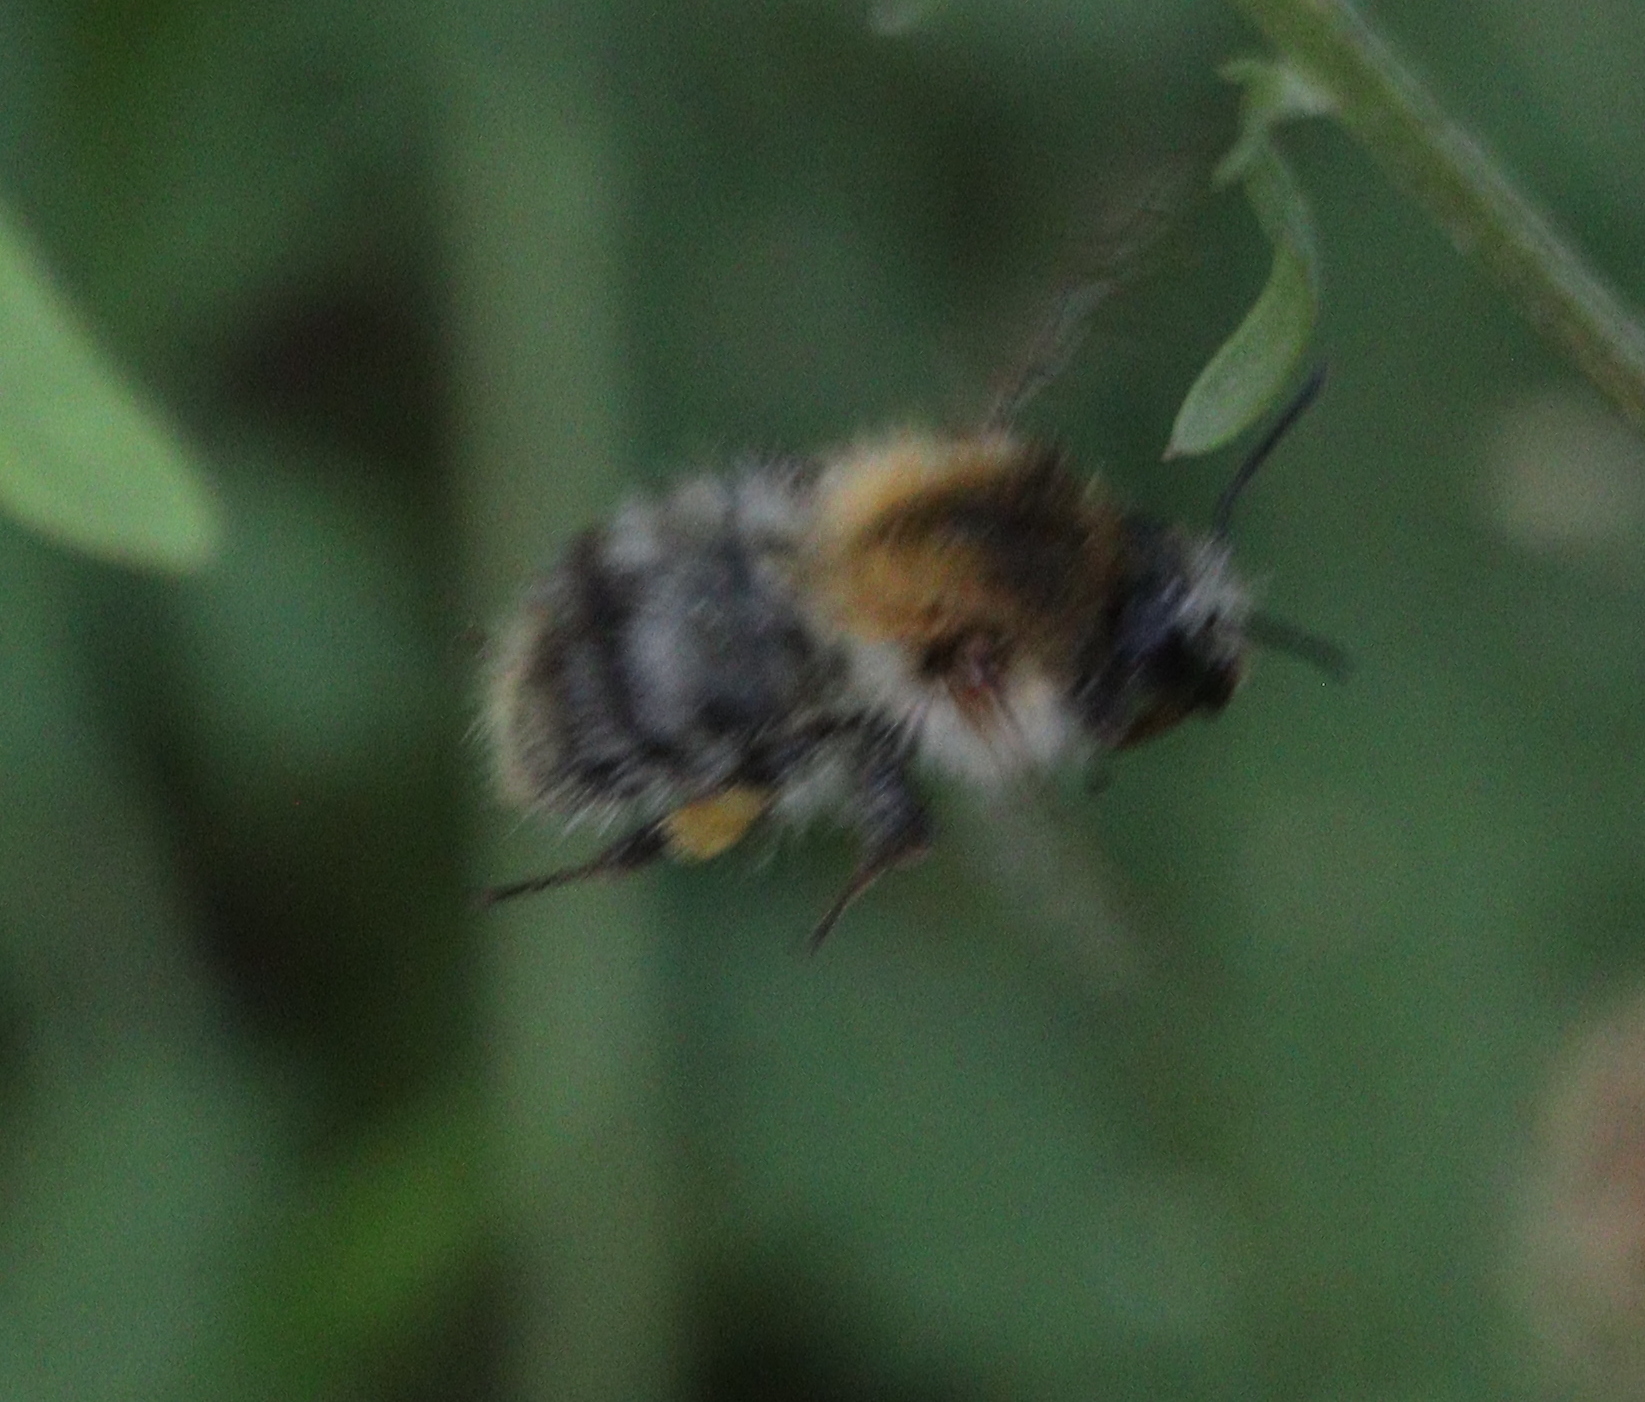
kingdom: Animalia
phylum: Arthropoda
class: Insecta
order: Hymenoptera
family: Apidae
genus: Bombus
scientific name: Bombus pascuorum
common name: Common carder bee
